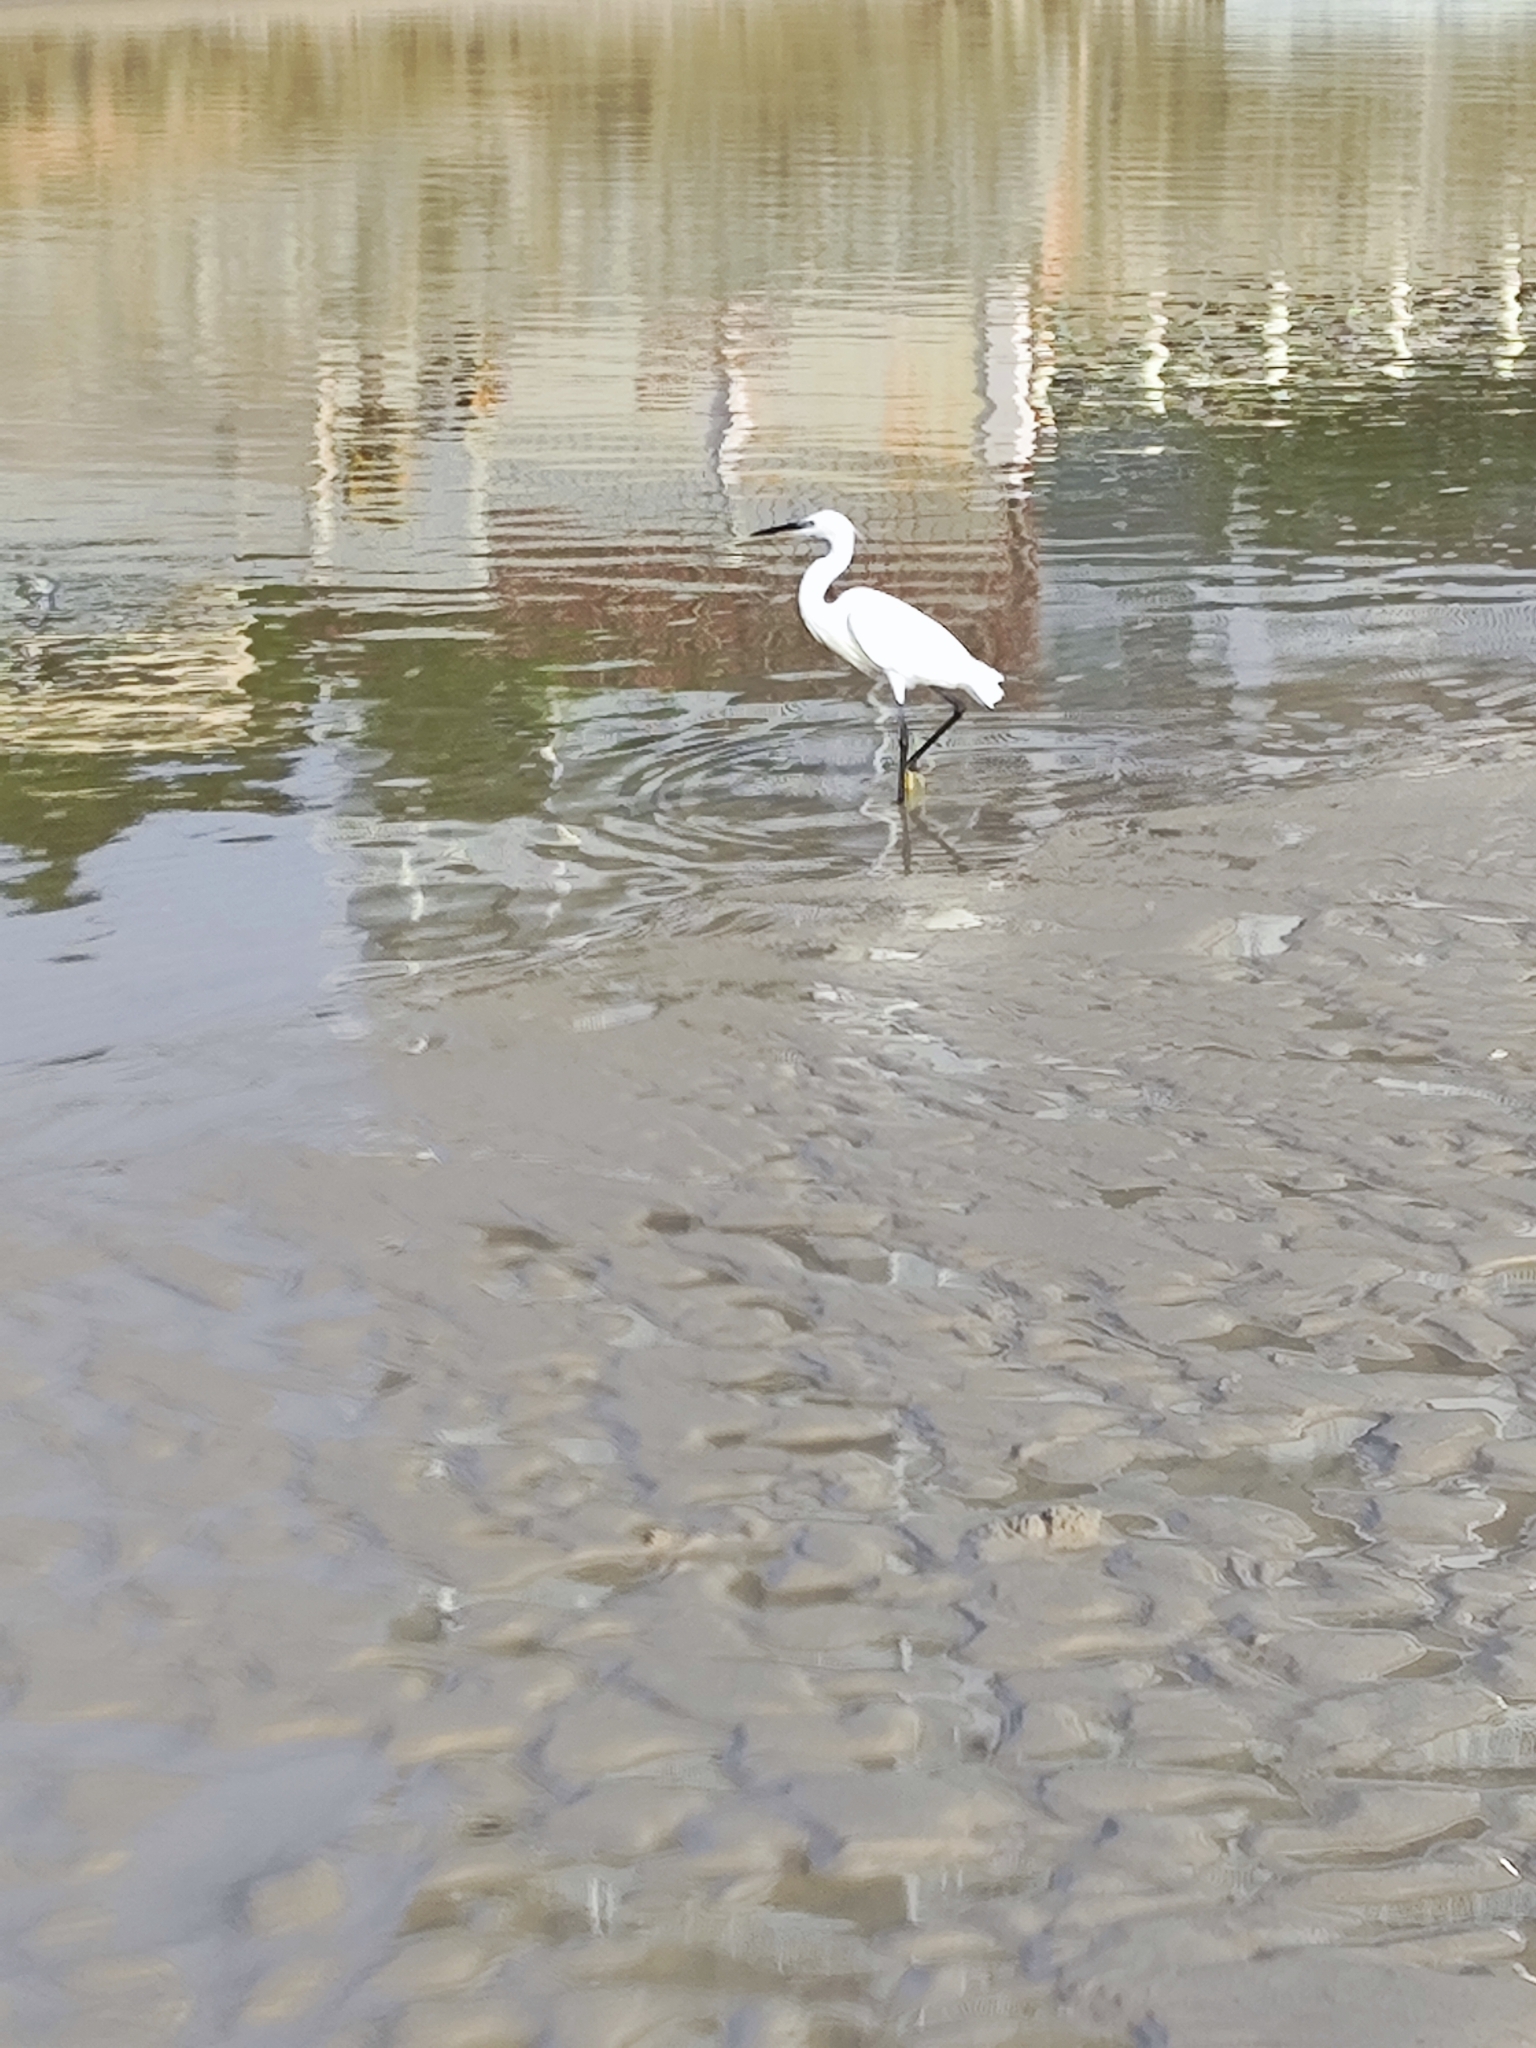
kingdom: Animalia
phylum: Chordata
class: Aves
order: Pelecaniformes
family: Ardeidae
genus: Egretta
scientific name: Egretta garzetta
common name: Little egret
